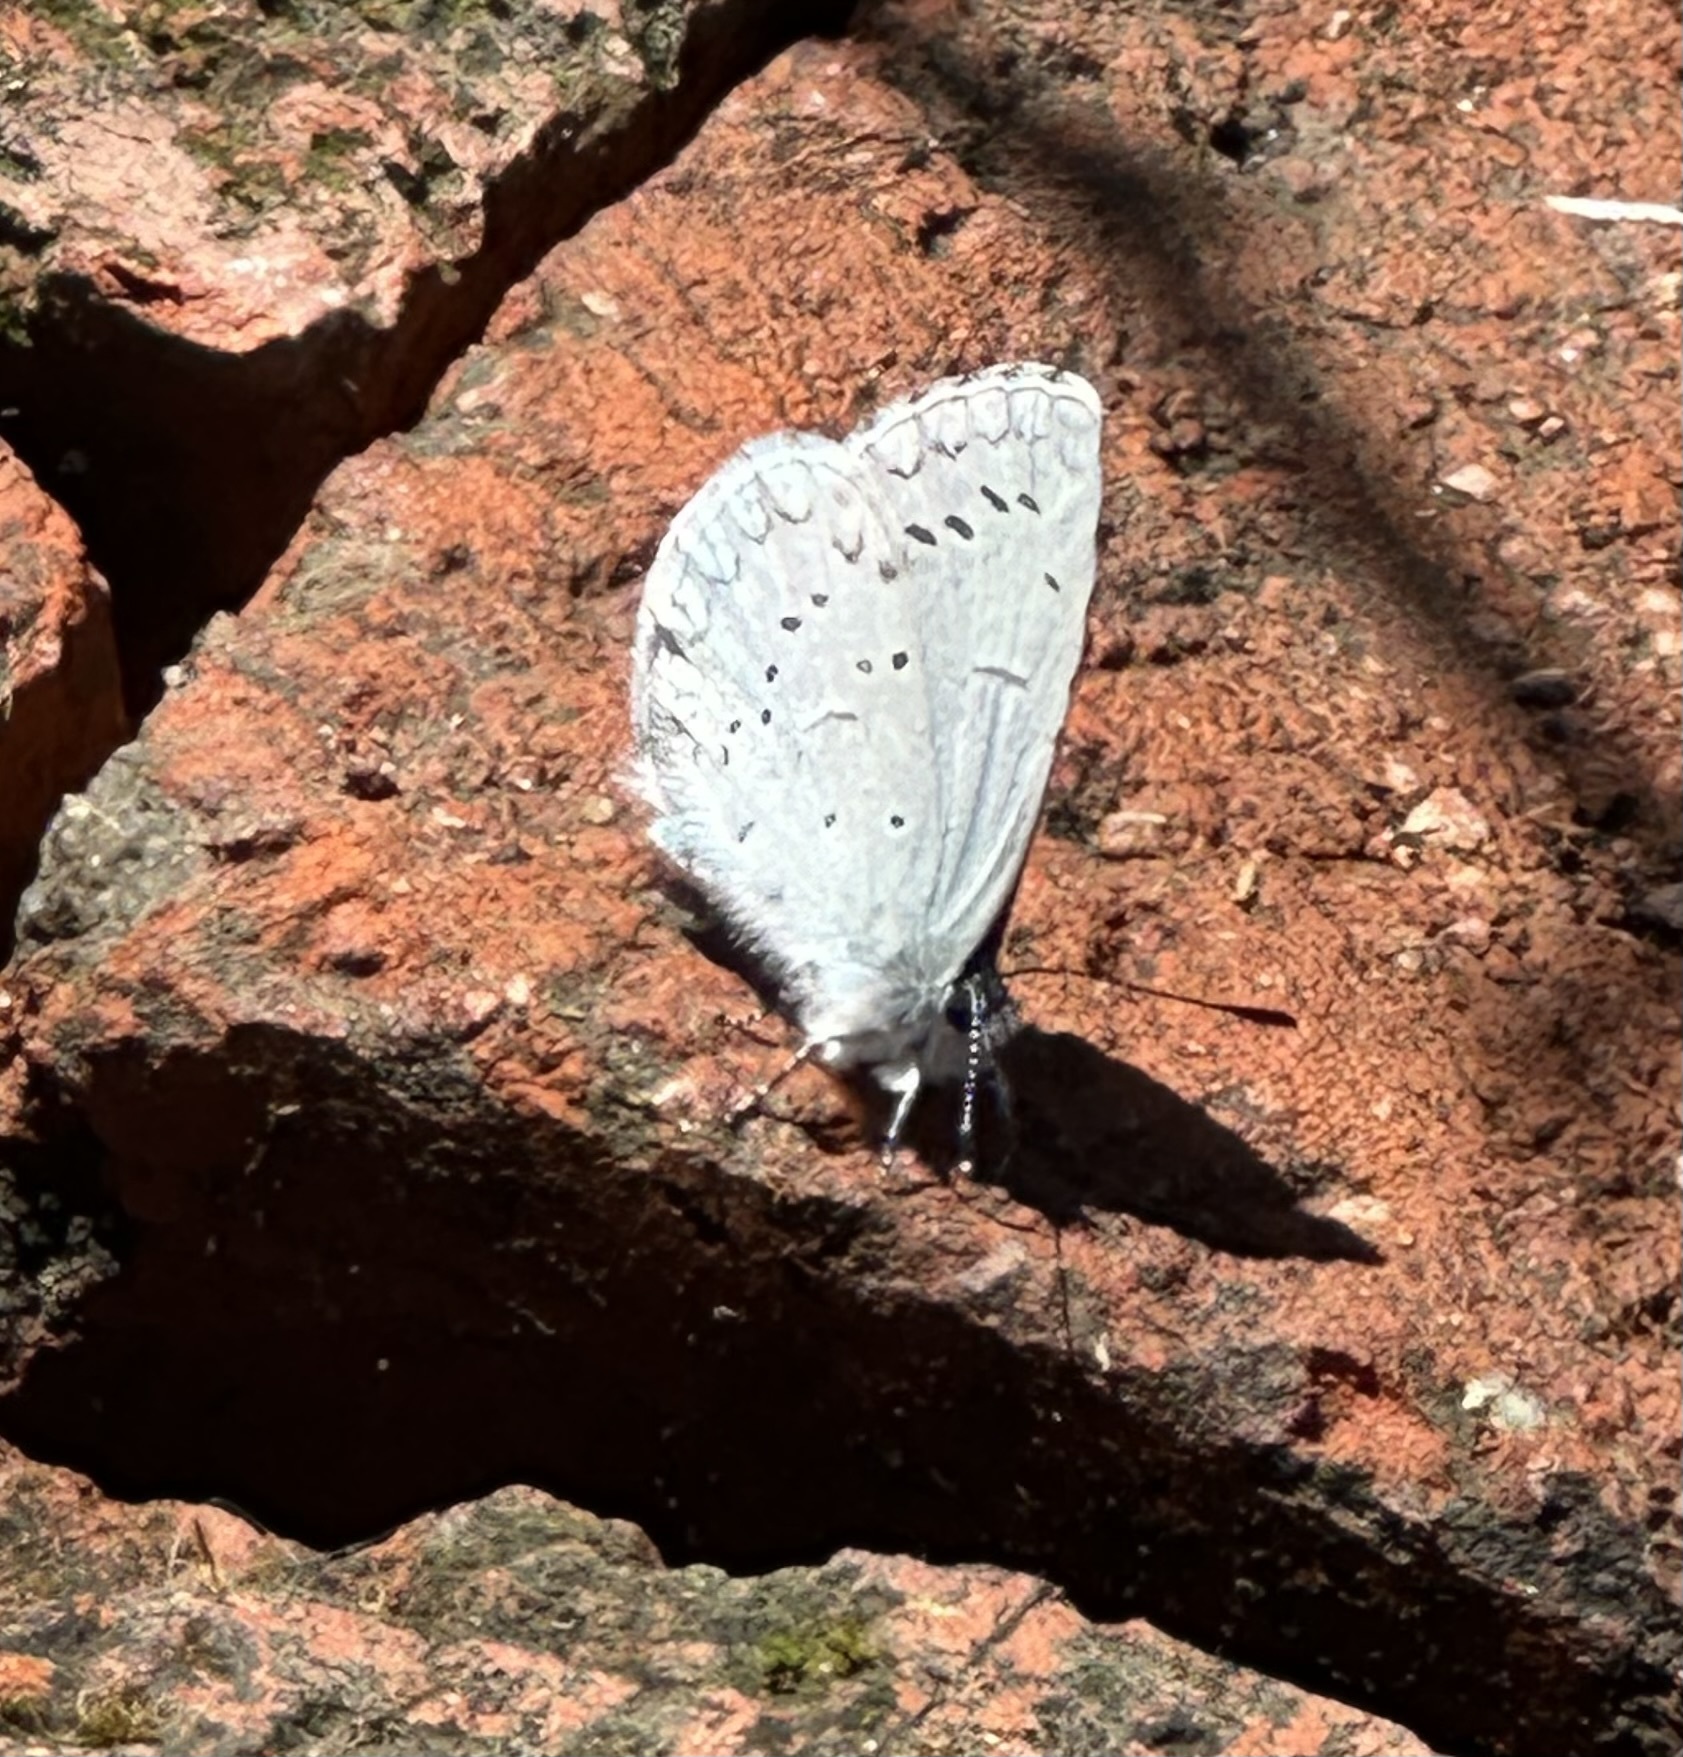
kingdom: Animalia
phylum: Arthropoda
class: Insecta
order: Lepidoptera
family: Lycaenidae
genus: Celastrina
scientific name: Celastrina ladon
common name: Spring azure
